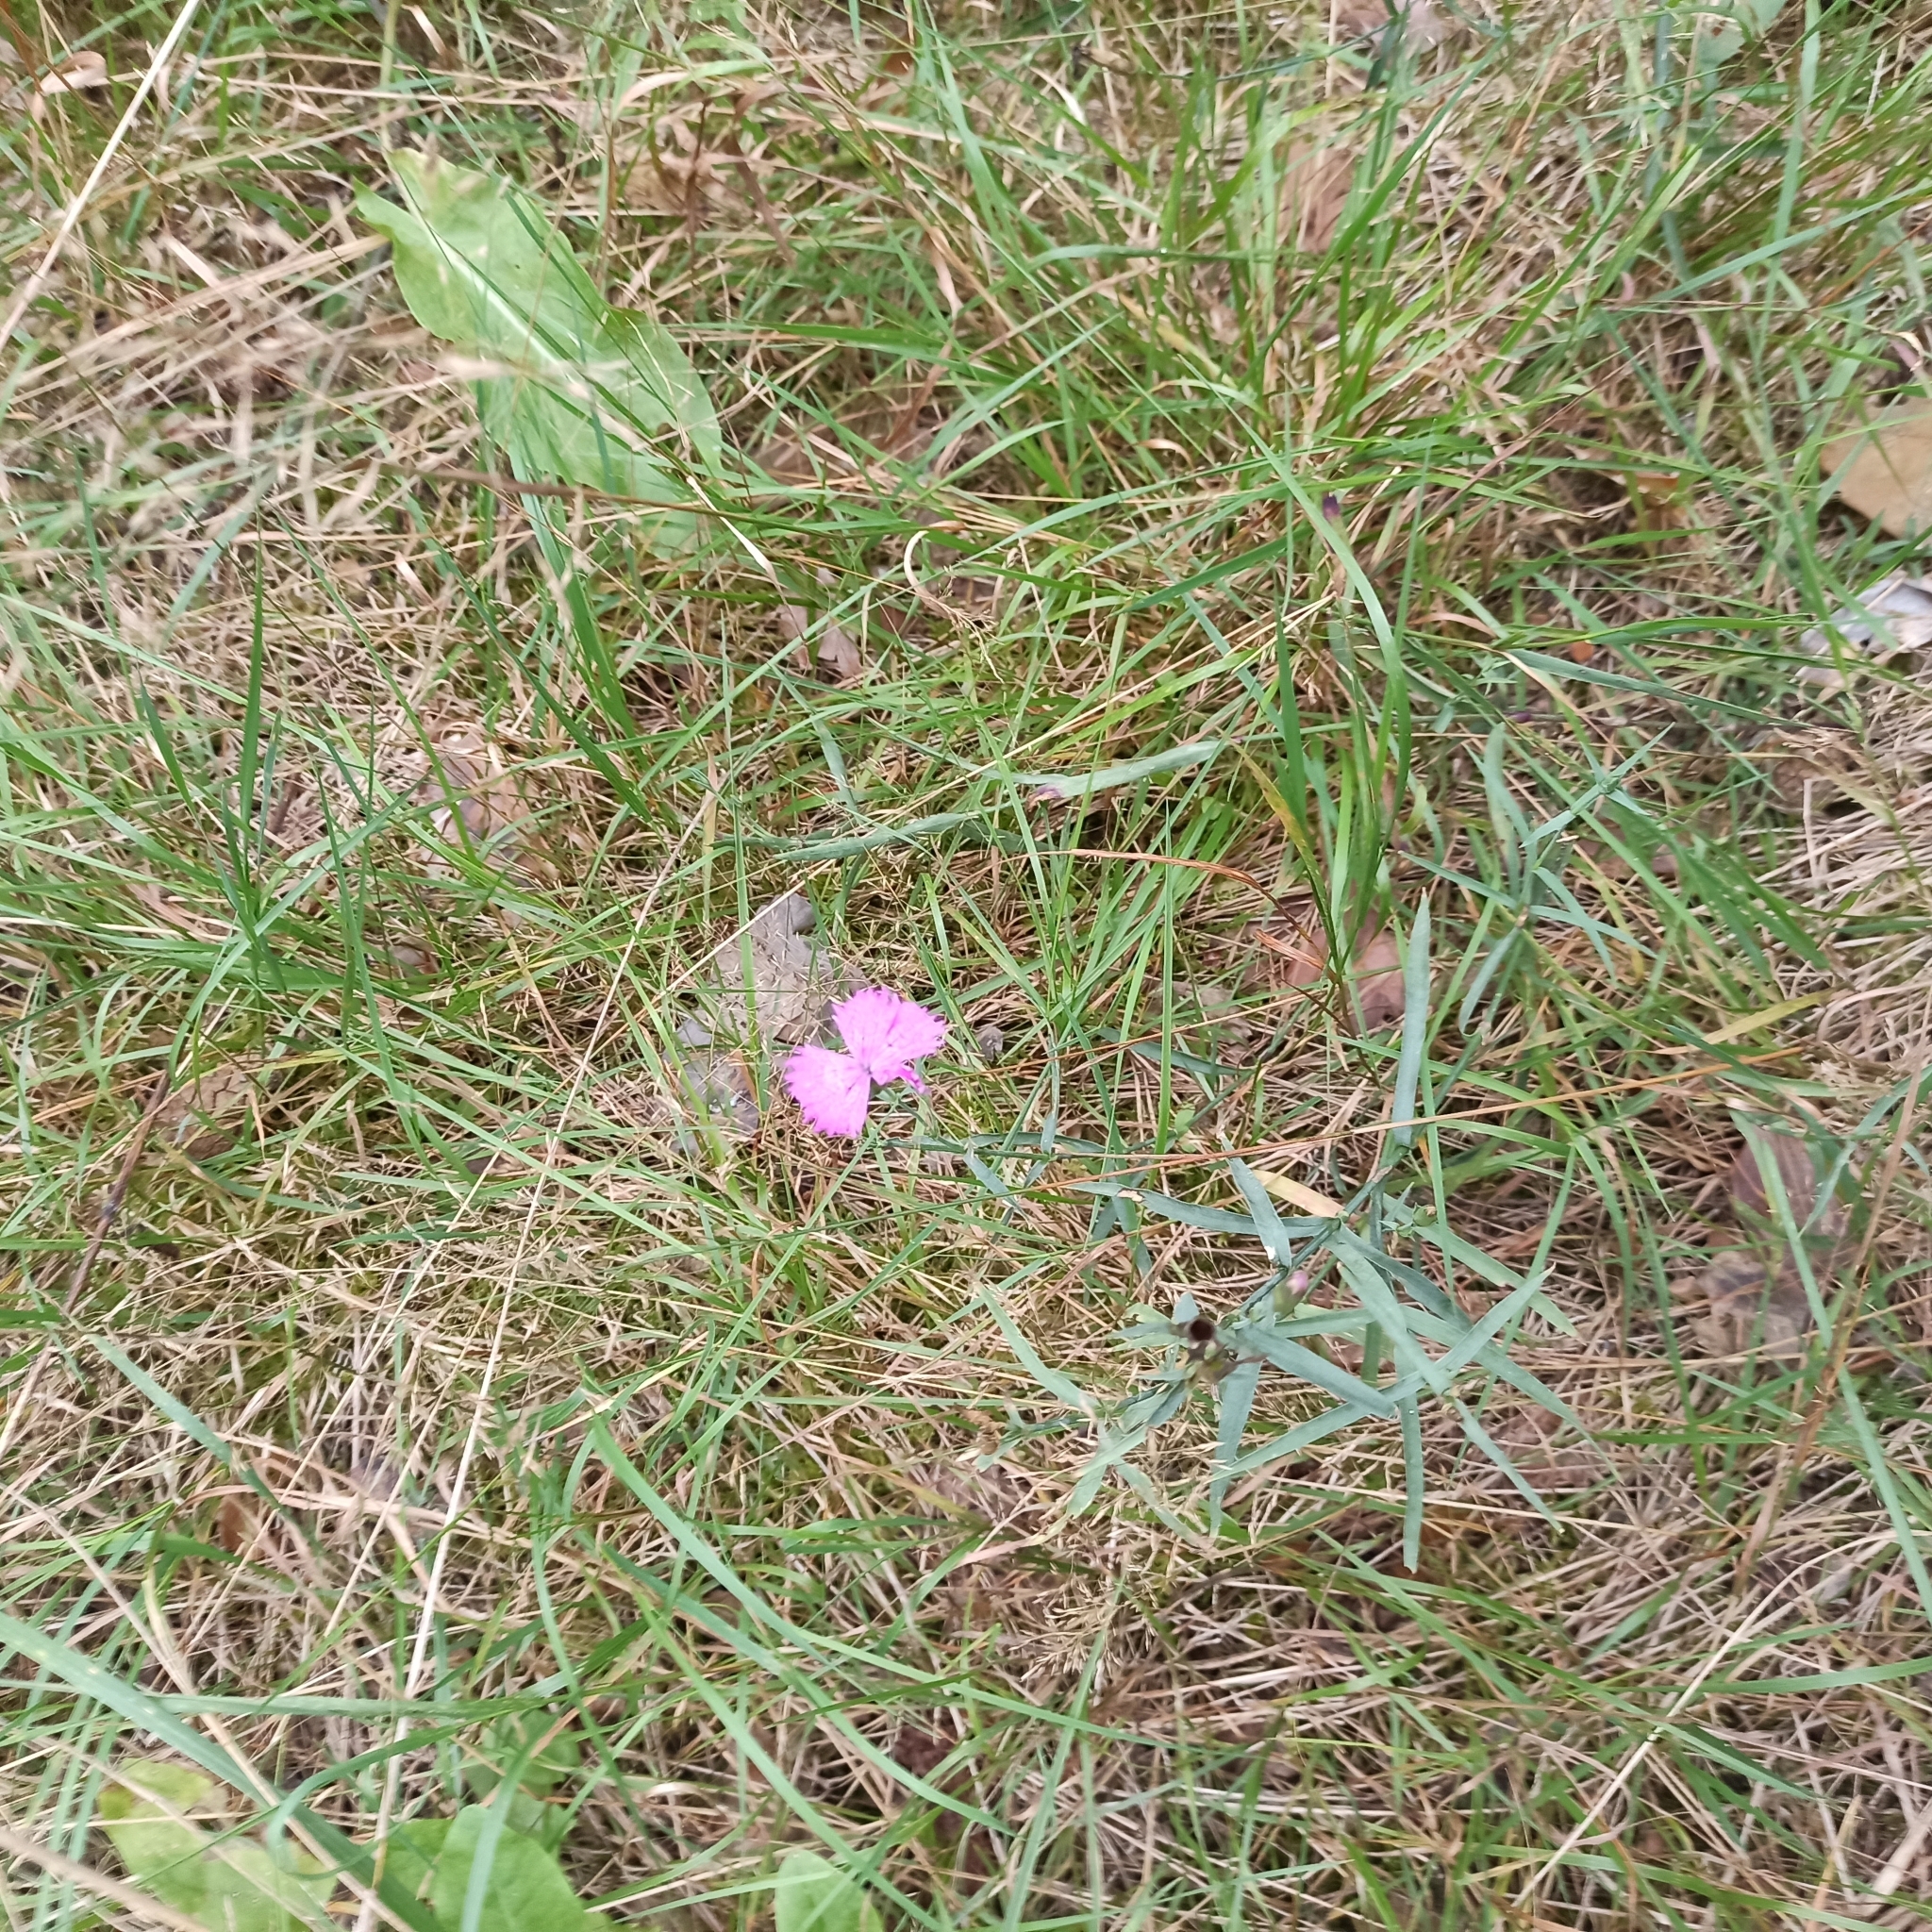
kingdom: Plantae
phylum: Tracheophyta
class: Magnoliopsida
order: Caryophyllales
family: Caryophyllaceae
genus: Dianthus
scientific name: Dianthus chinensis
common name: Rainbow pink
